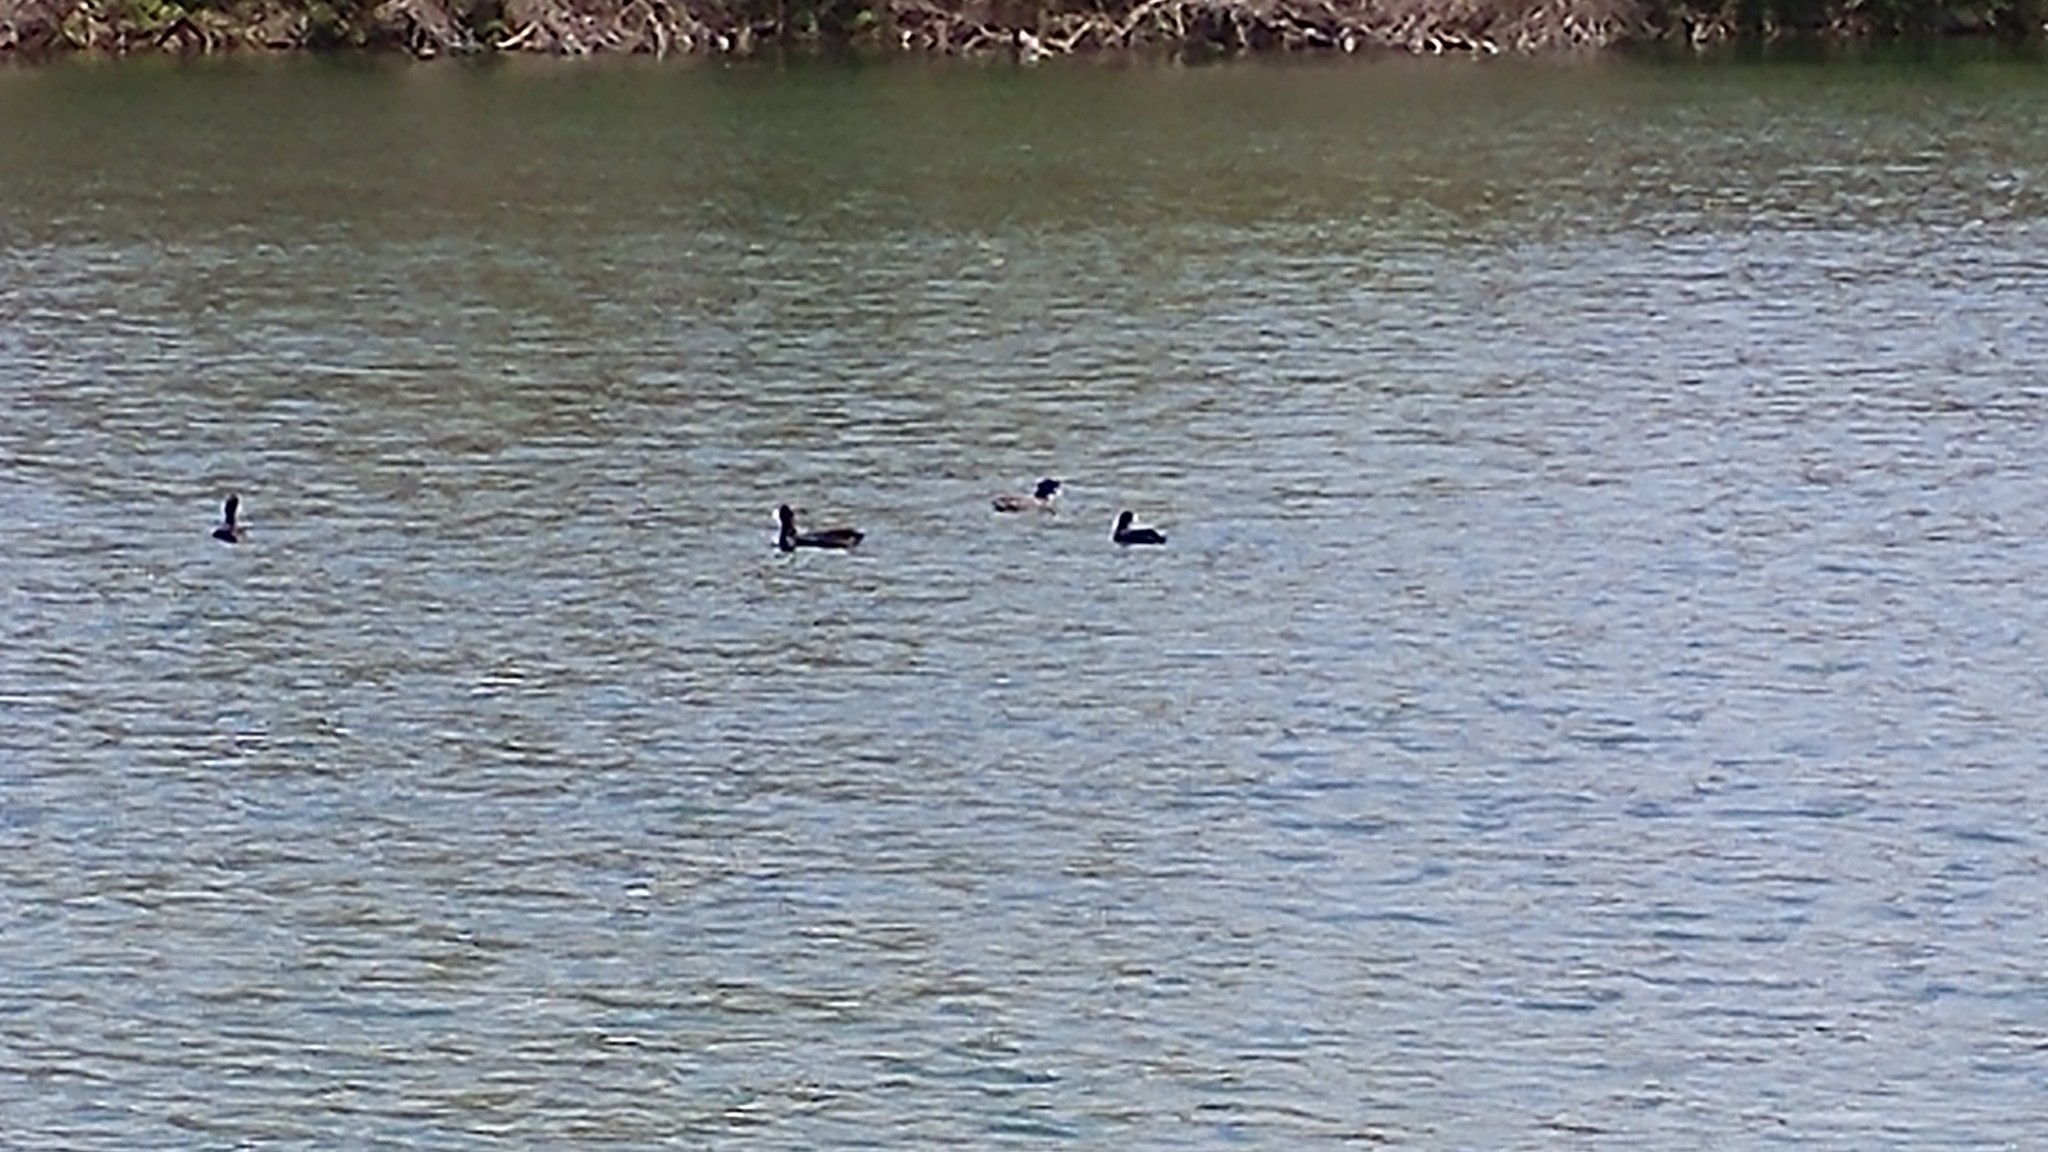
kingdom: Animalia
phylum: Chordata
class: Aves
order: Gruiformes
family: Rallidae
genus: Fulica
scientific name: Fulica americana
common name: American coot
